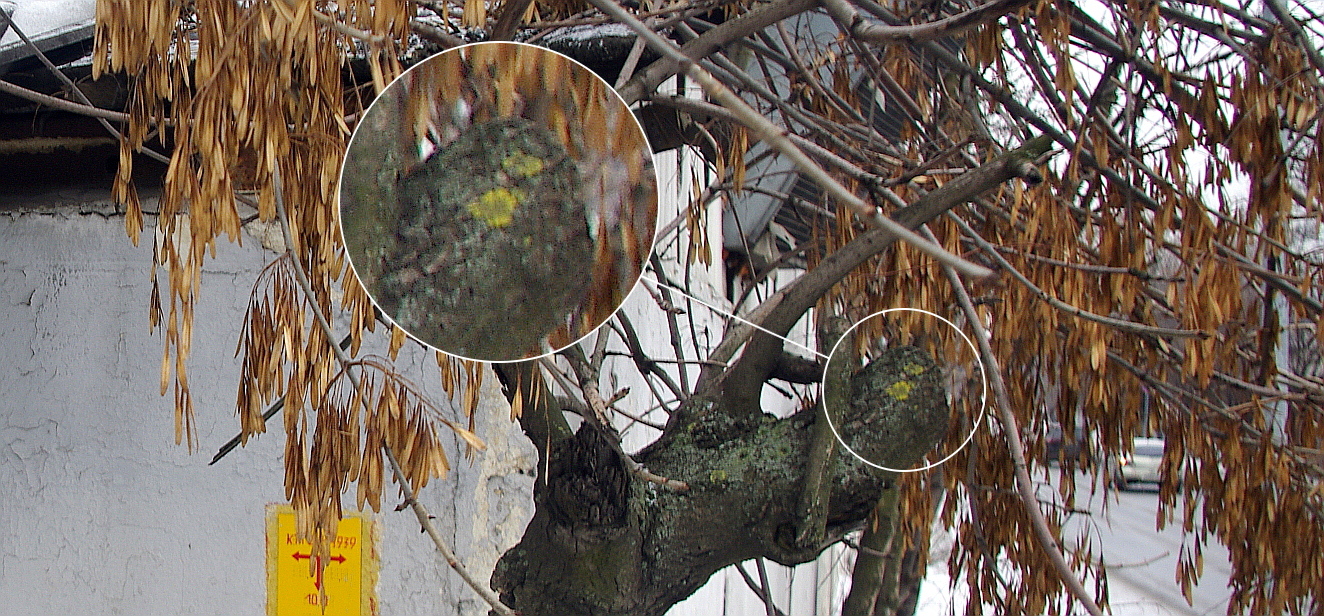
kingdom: Fungi
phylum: Ascomycota
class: Lecanoromycetes
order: Teloschistales
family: Teloschistaceae
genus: Xanthoria
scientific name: Xanthoria parietina
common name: Common orange lichen
